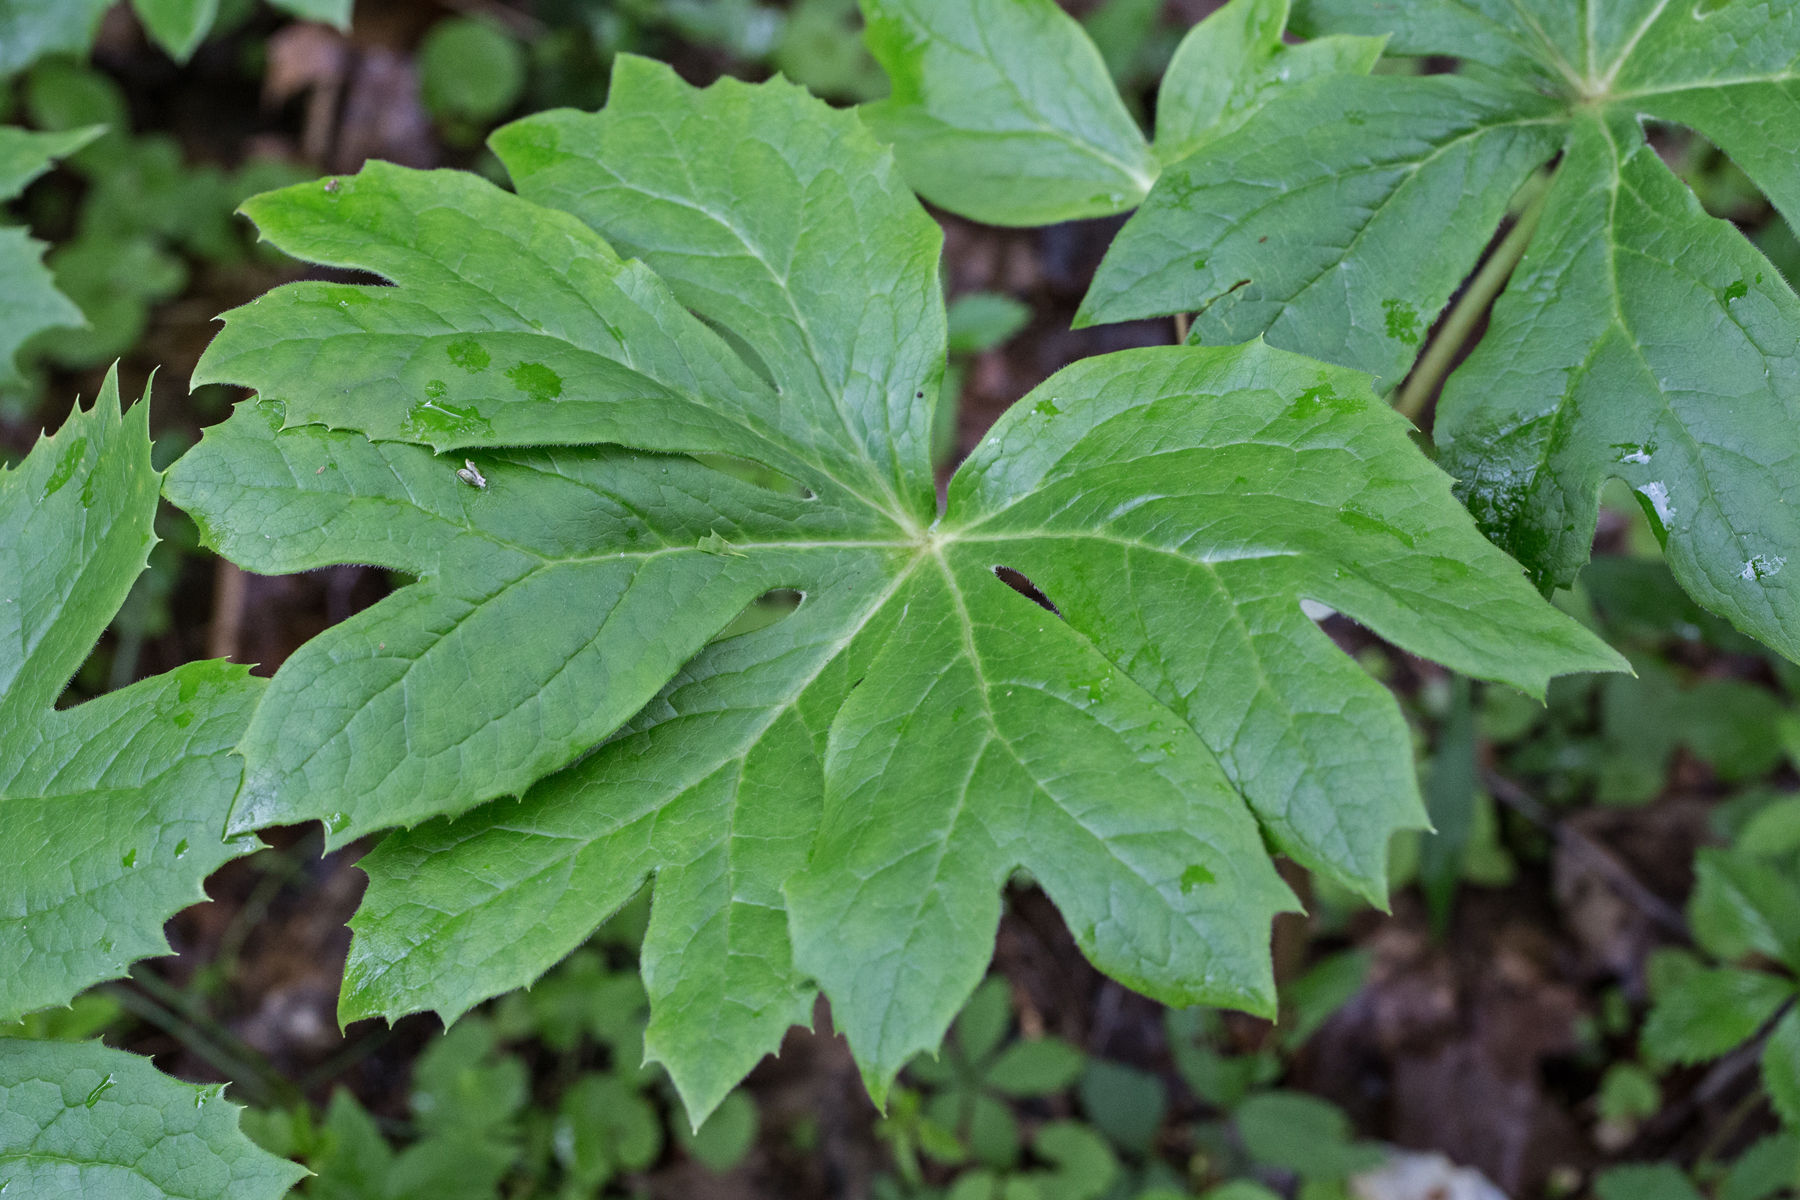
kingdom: Plantae
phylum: Tracheophyta
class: Magnoliopsida
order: Ranunculales
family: Berberidaceae
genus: Podophyllum
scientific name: Podophyllum peltatum
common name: Wild mandrake
